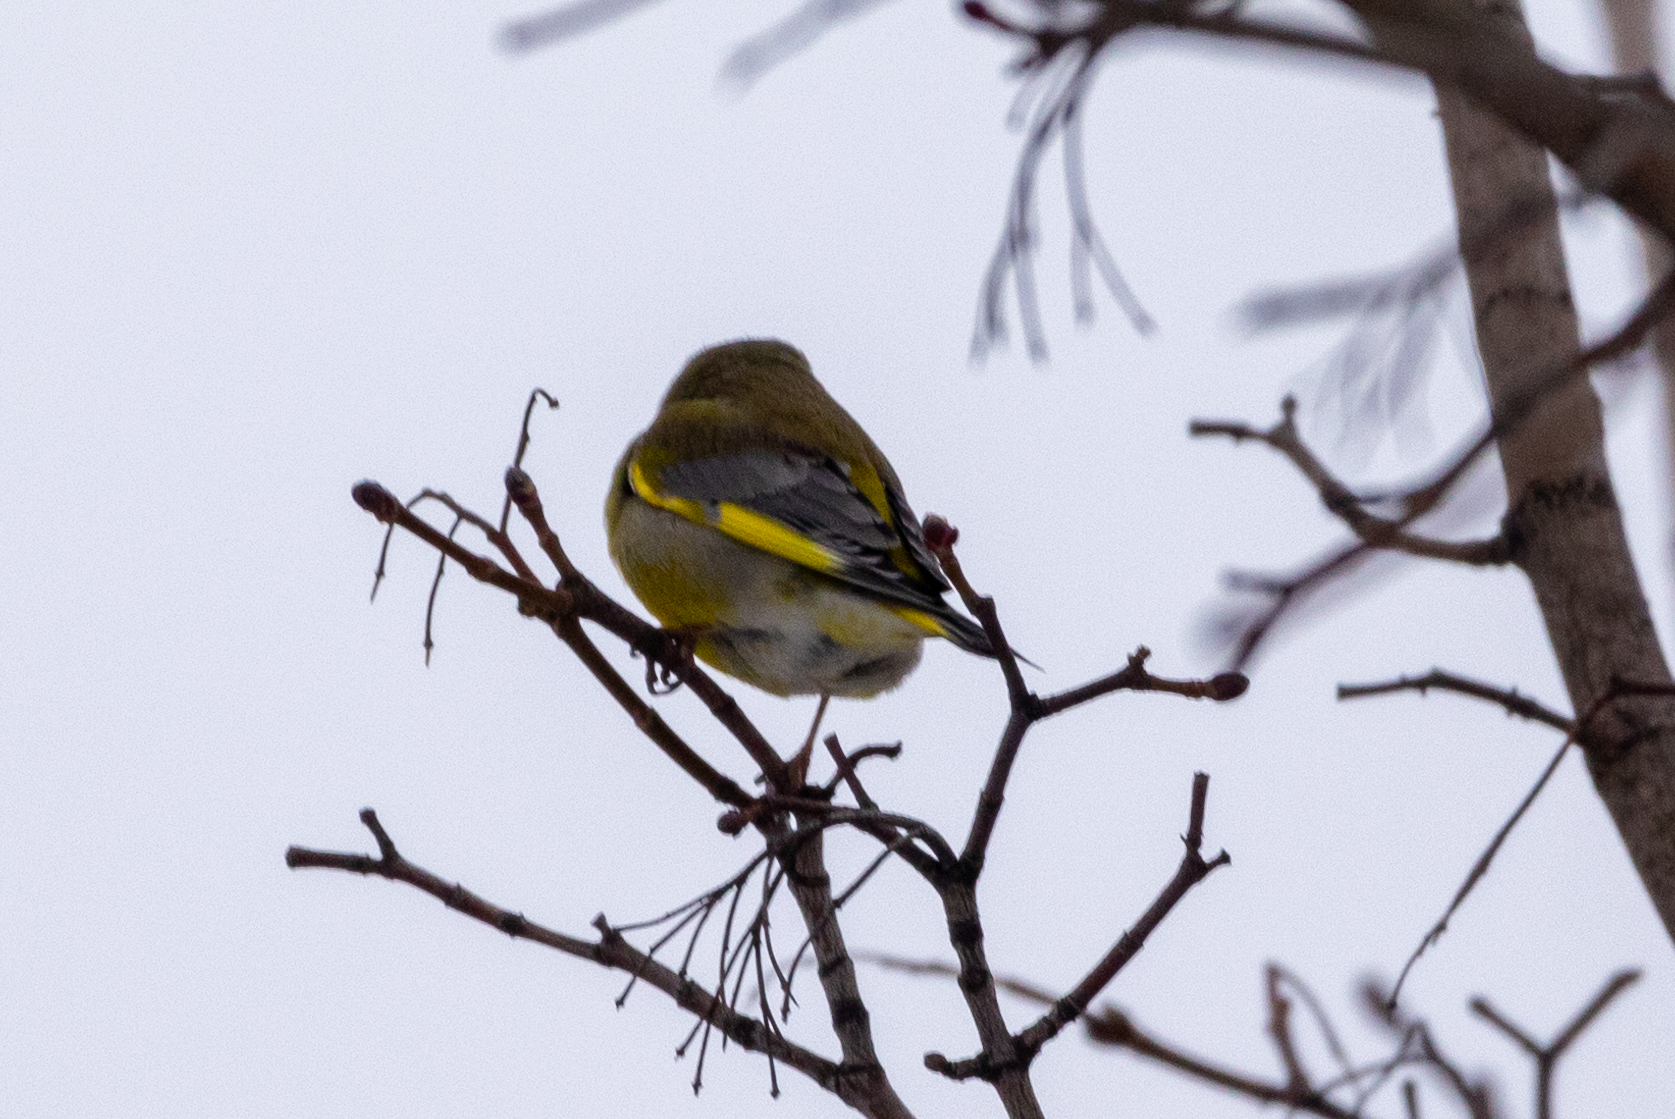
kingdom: Plantae
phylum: Tracheophyta
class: Liliopsida
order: Poales
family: Poaceae
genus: Chloris
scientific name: Chloris chloris
